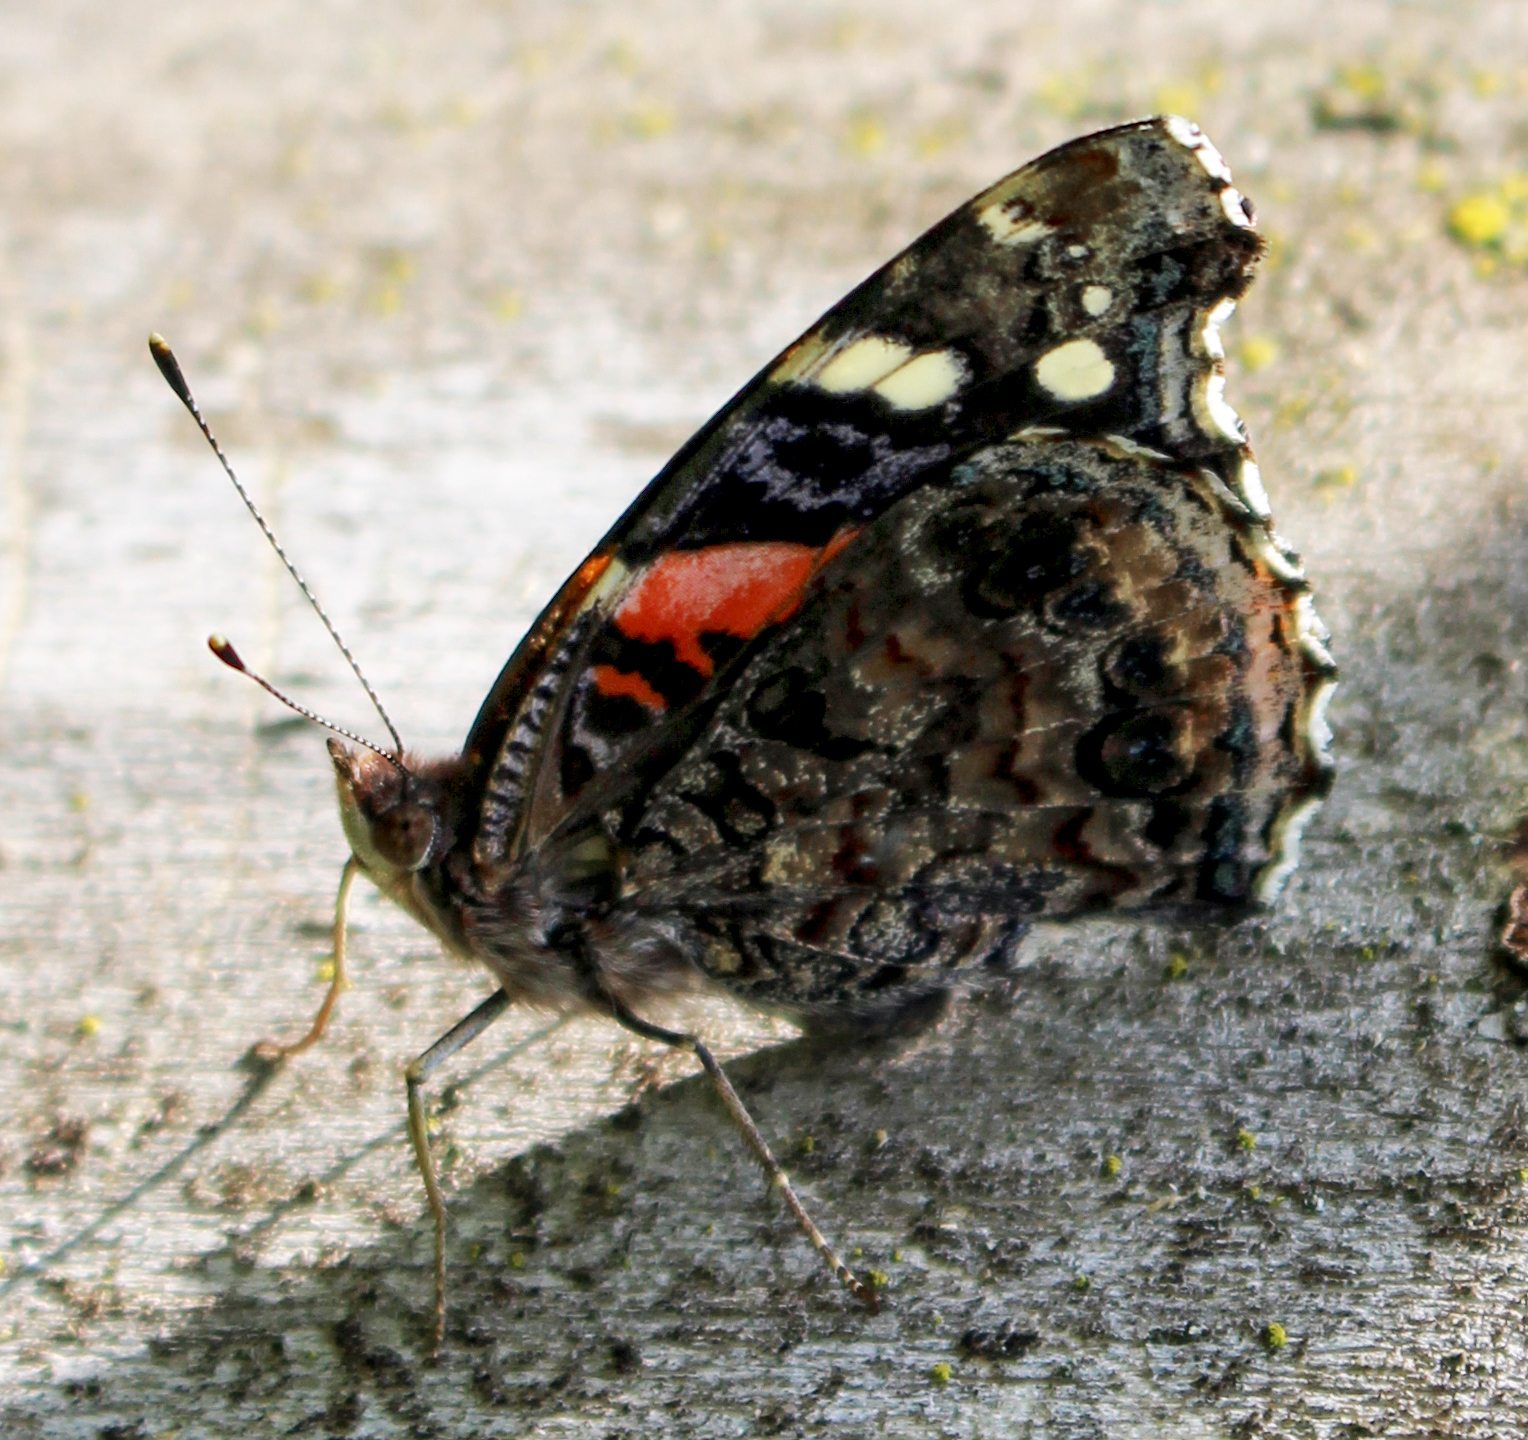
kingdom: Animalia
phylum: Arthropoda
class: Insecta
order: Lepidoptera
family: Nymphalidae
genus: Vanessa
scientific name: Vanessa atalanta
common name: Red admiral
